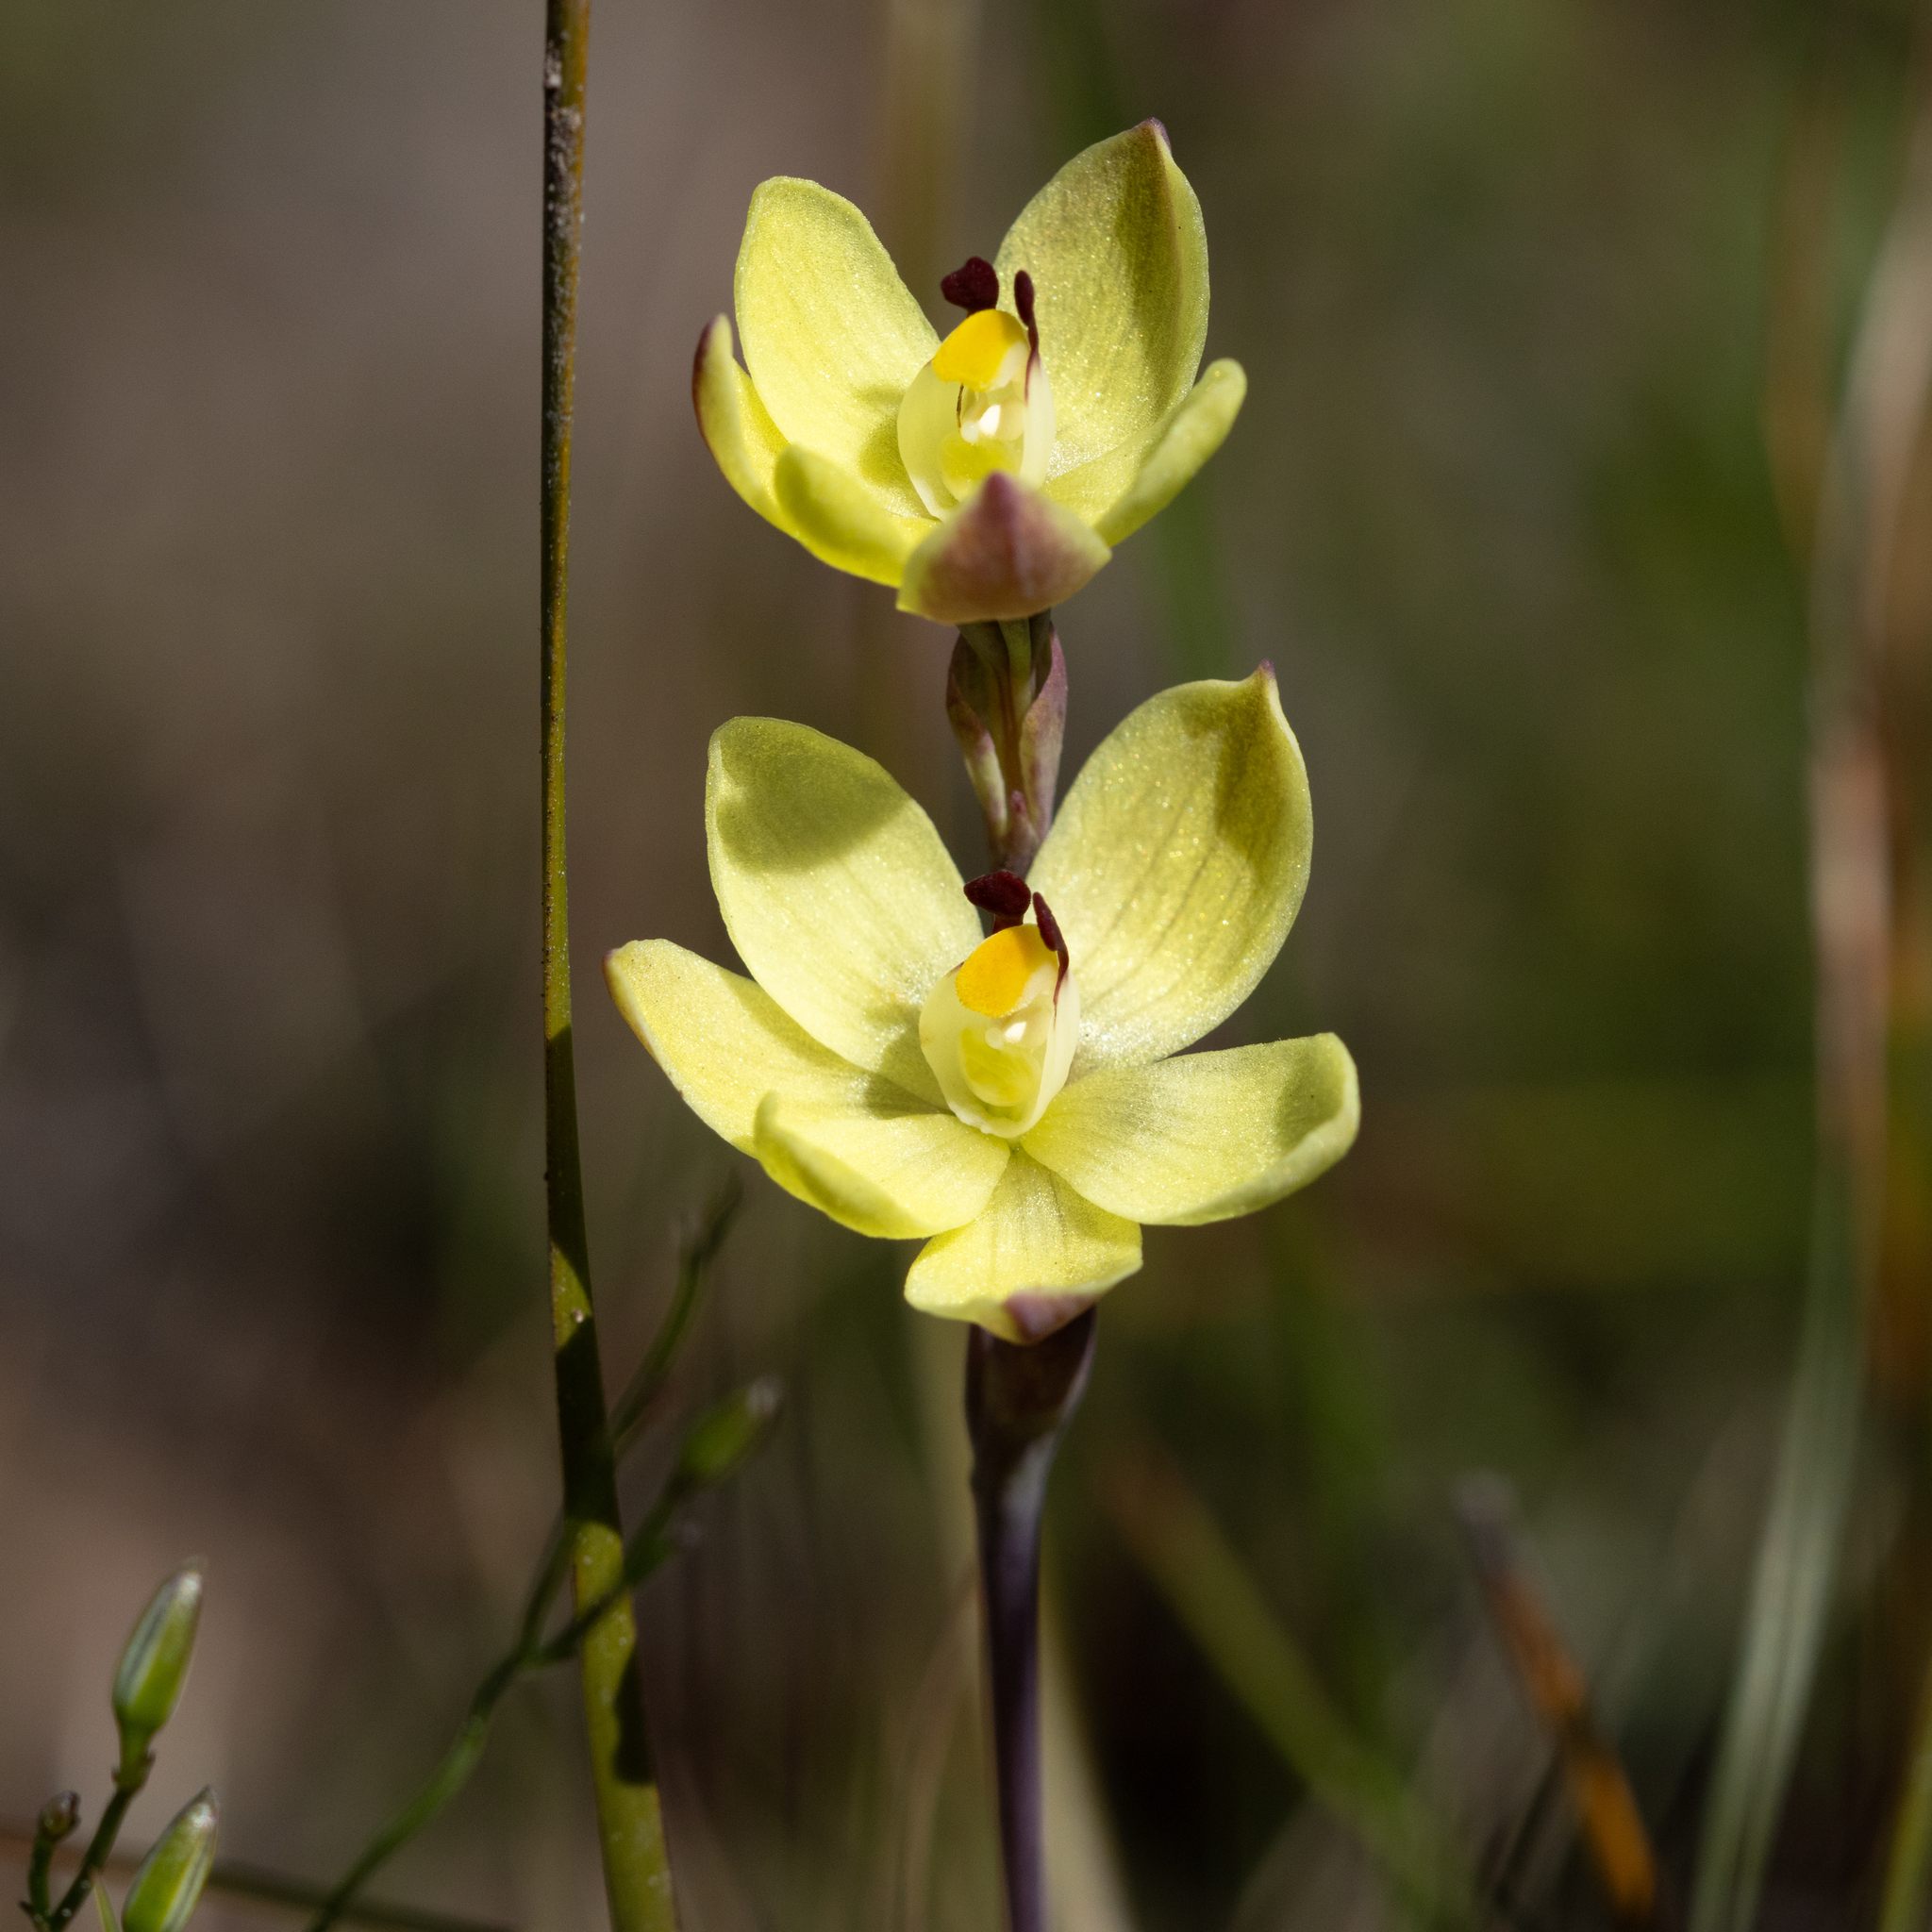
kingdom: Plantae
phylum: Tracheophyta
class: Liliopsida
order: Asparagales
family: Orchidaceae
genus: Thelymitra
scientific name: Thelymitra antennifera
